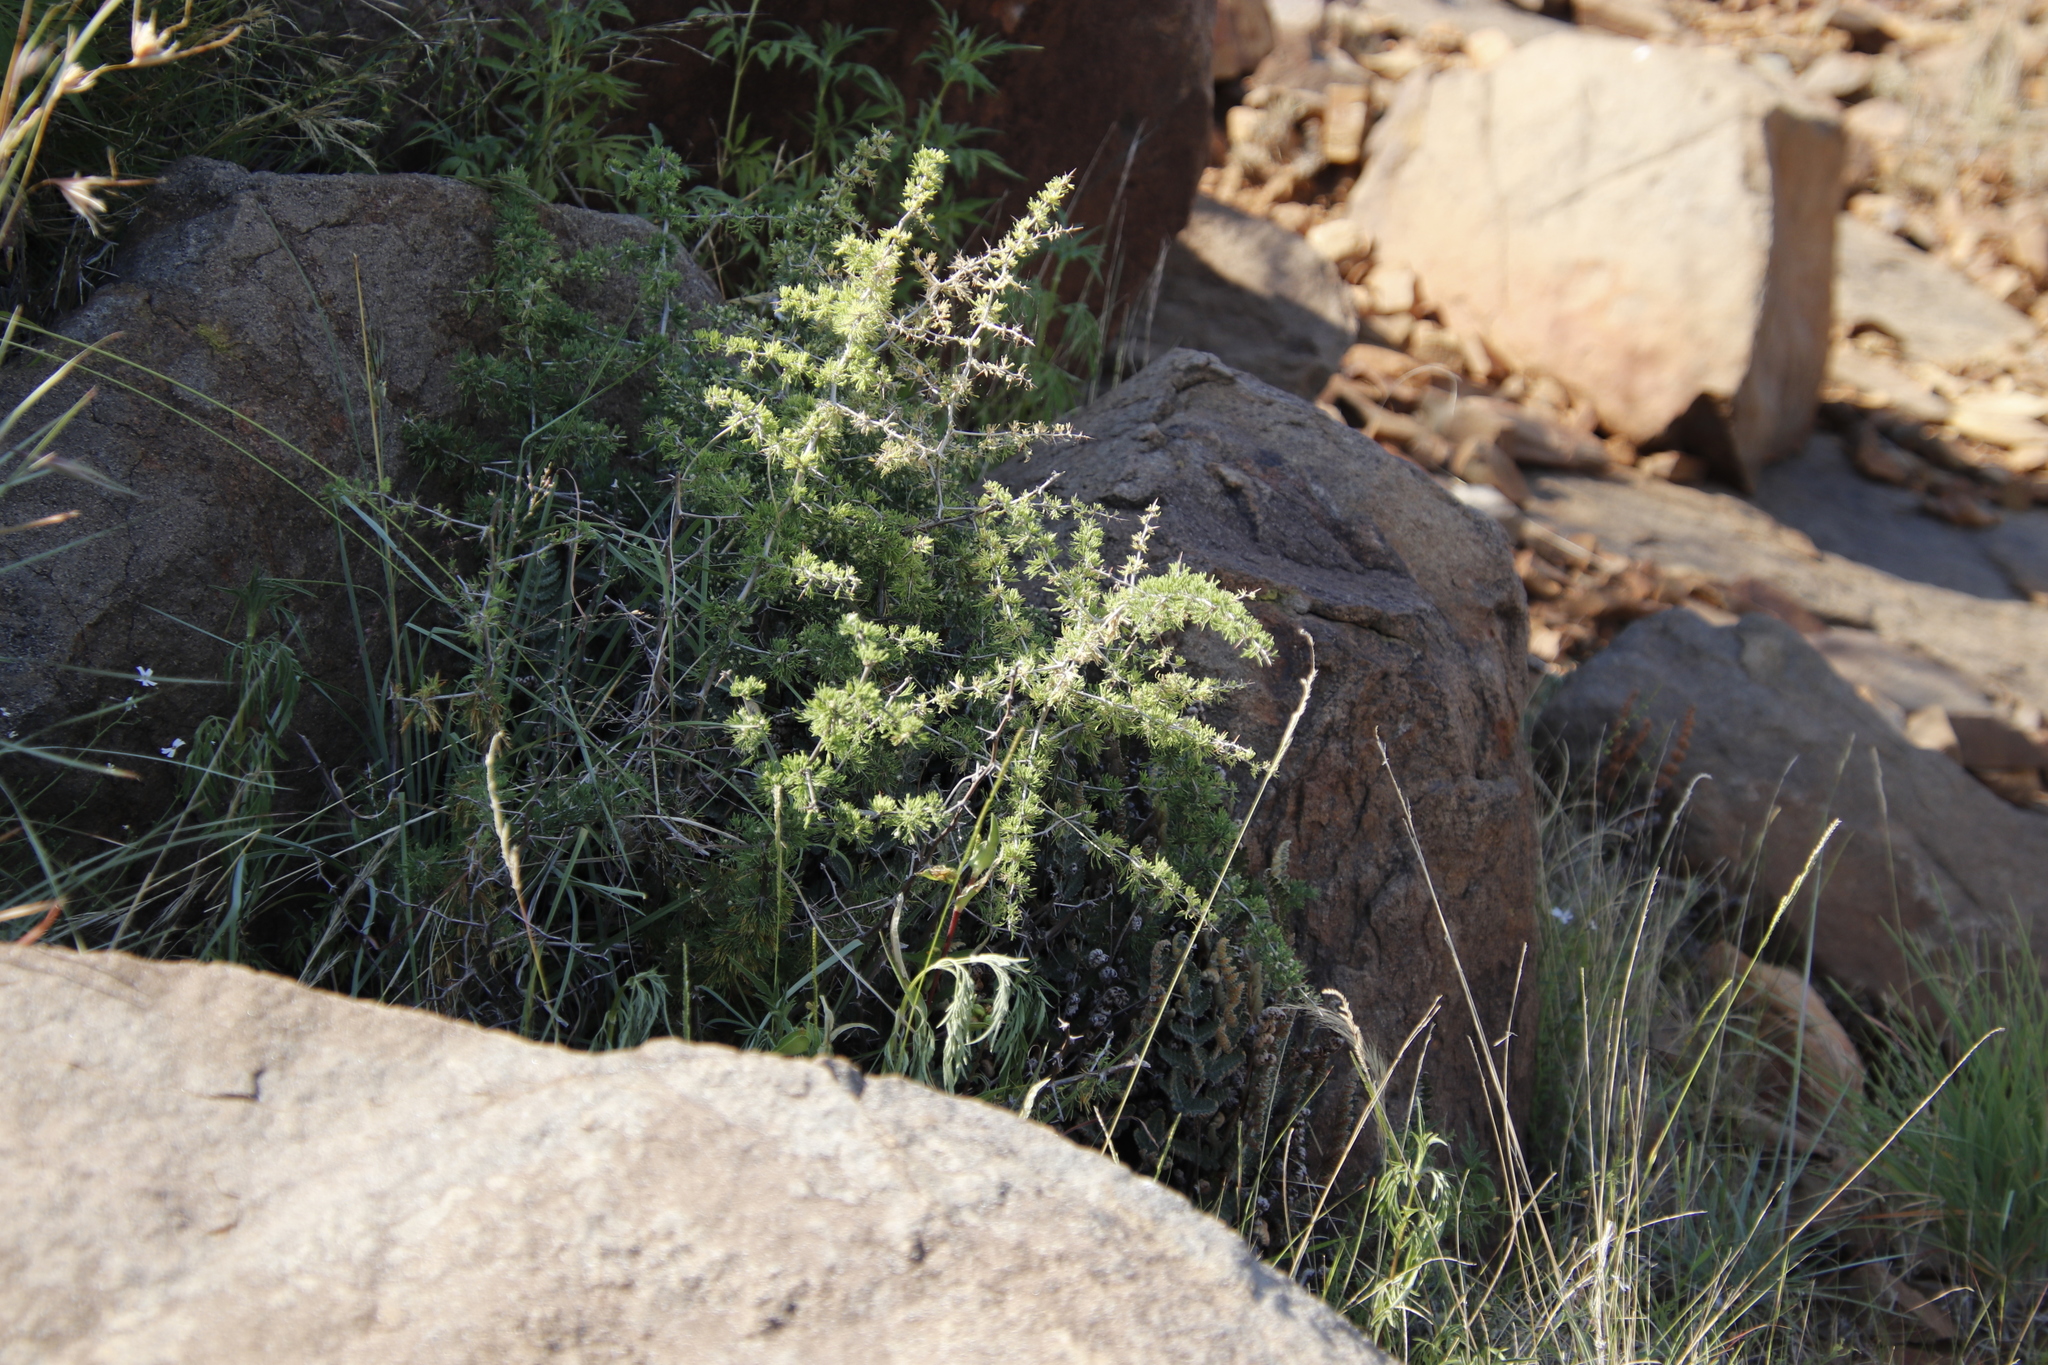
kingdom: Plantae
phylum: Tracheophyta
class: Liliopsida
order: Asparagales
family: Asparagaceae
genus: Asparagus
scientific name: Asparagus spinescens
